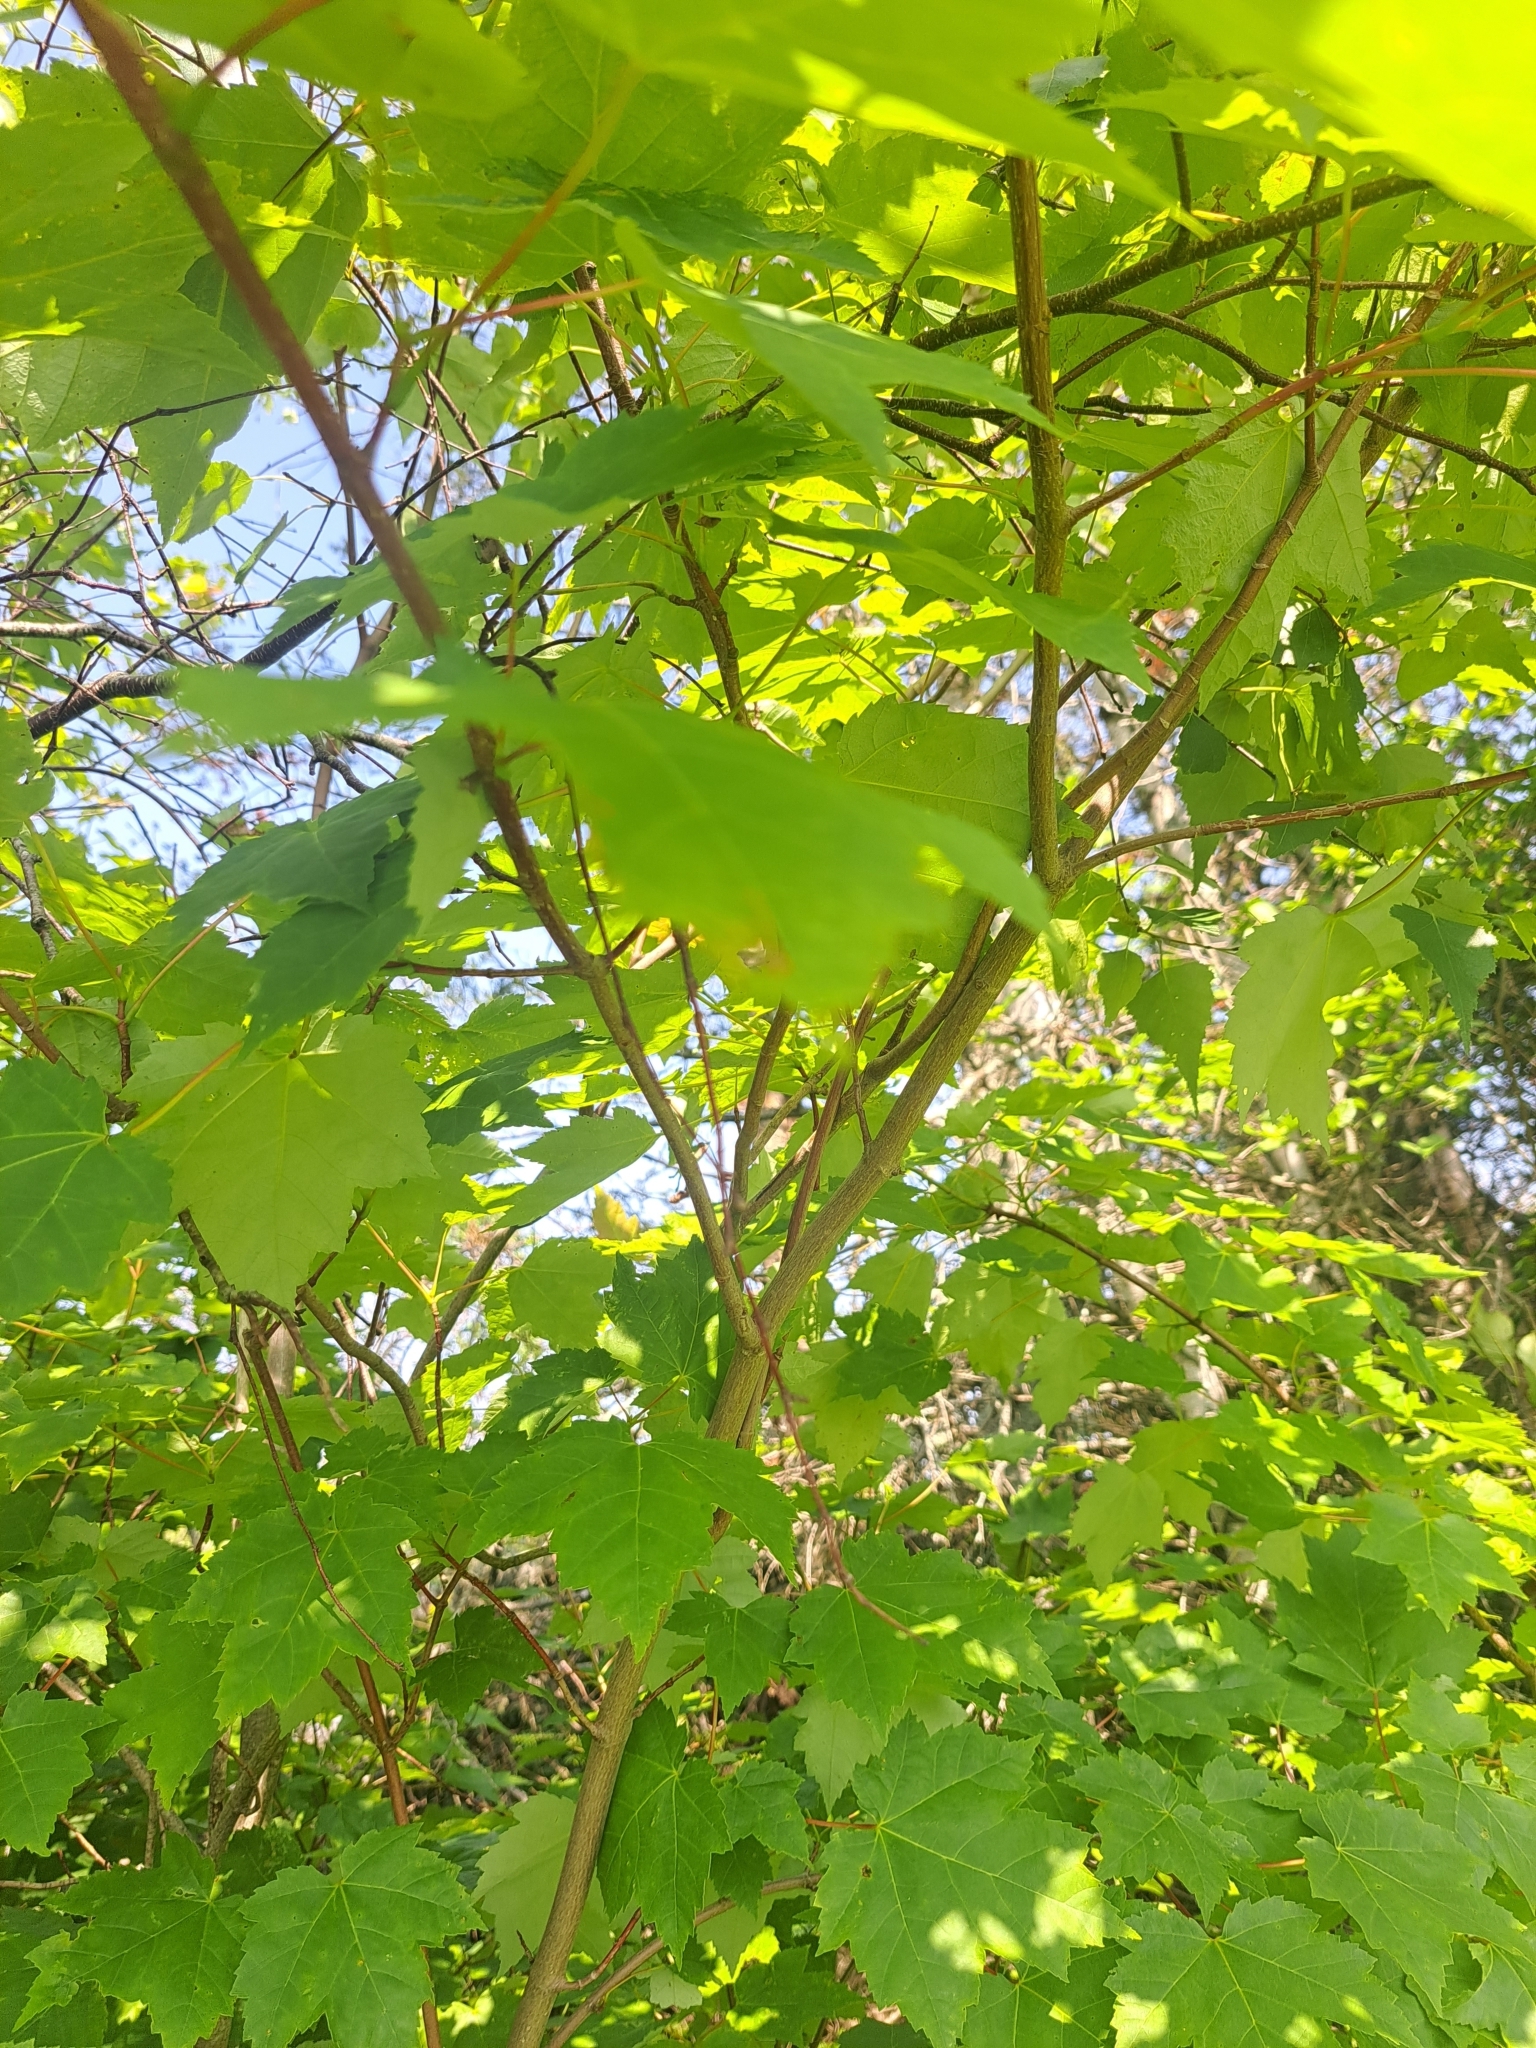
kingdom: Plantae
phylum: Tracheophyta
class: Magnoliopsida
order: Sapindales
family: Sapindaceae
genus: Acer
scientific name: Acer rubrum
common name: Red maple
